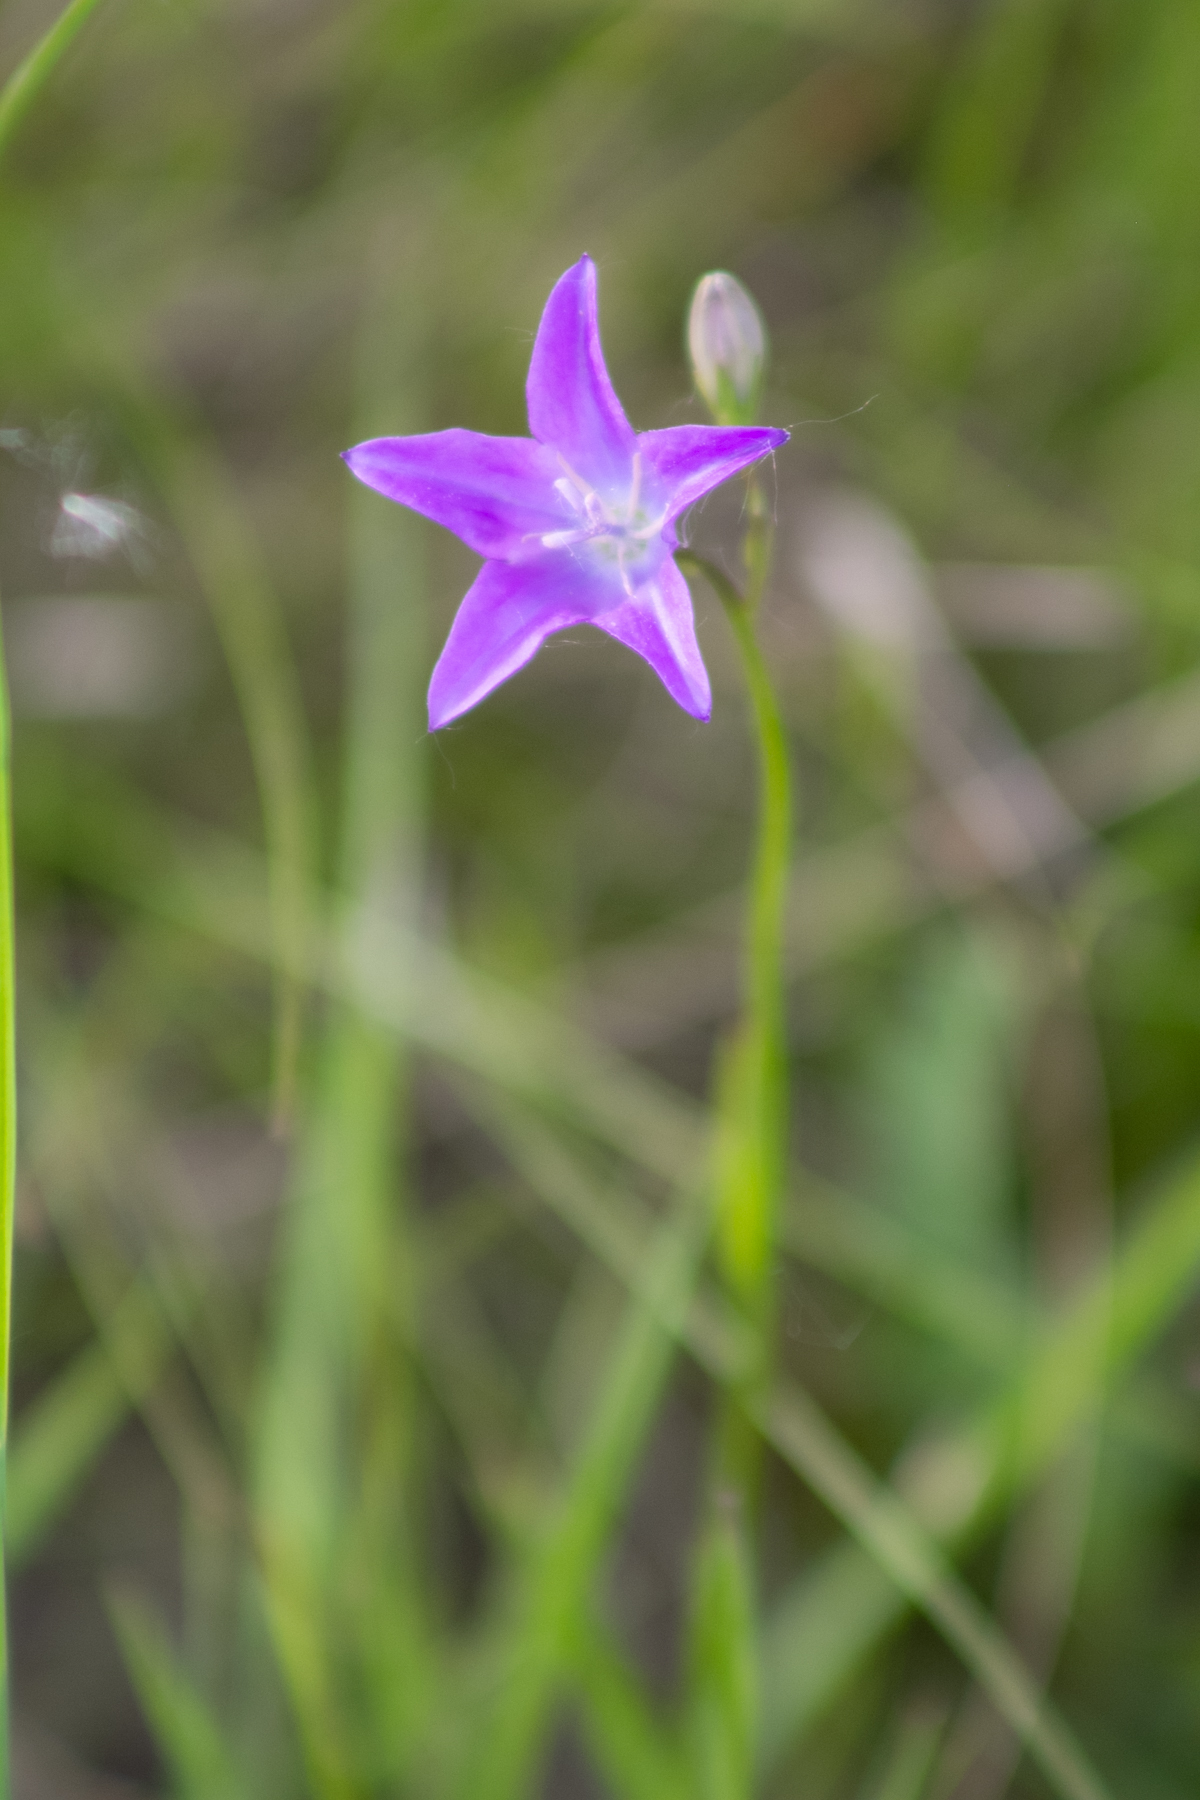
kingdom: Plantae
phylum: Tracheophyta
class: Magnoliopsida
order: Asterales
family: Campanulaceae
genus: Campanula
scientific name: Campanula stevenii
